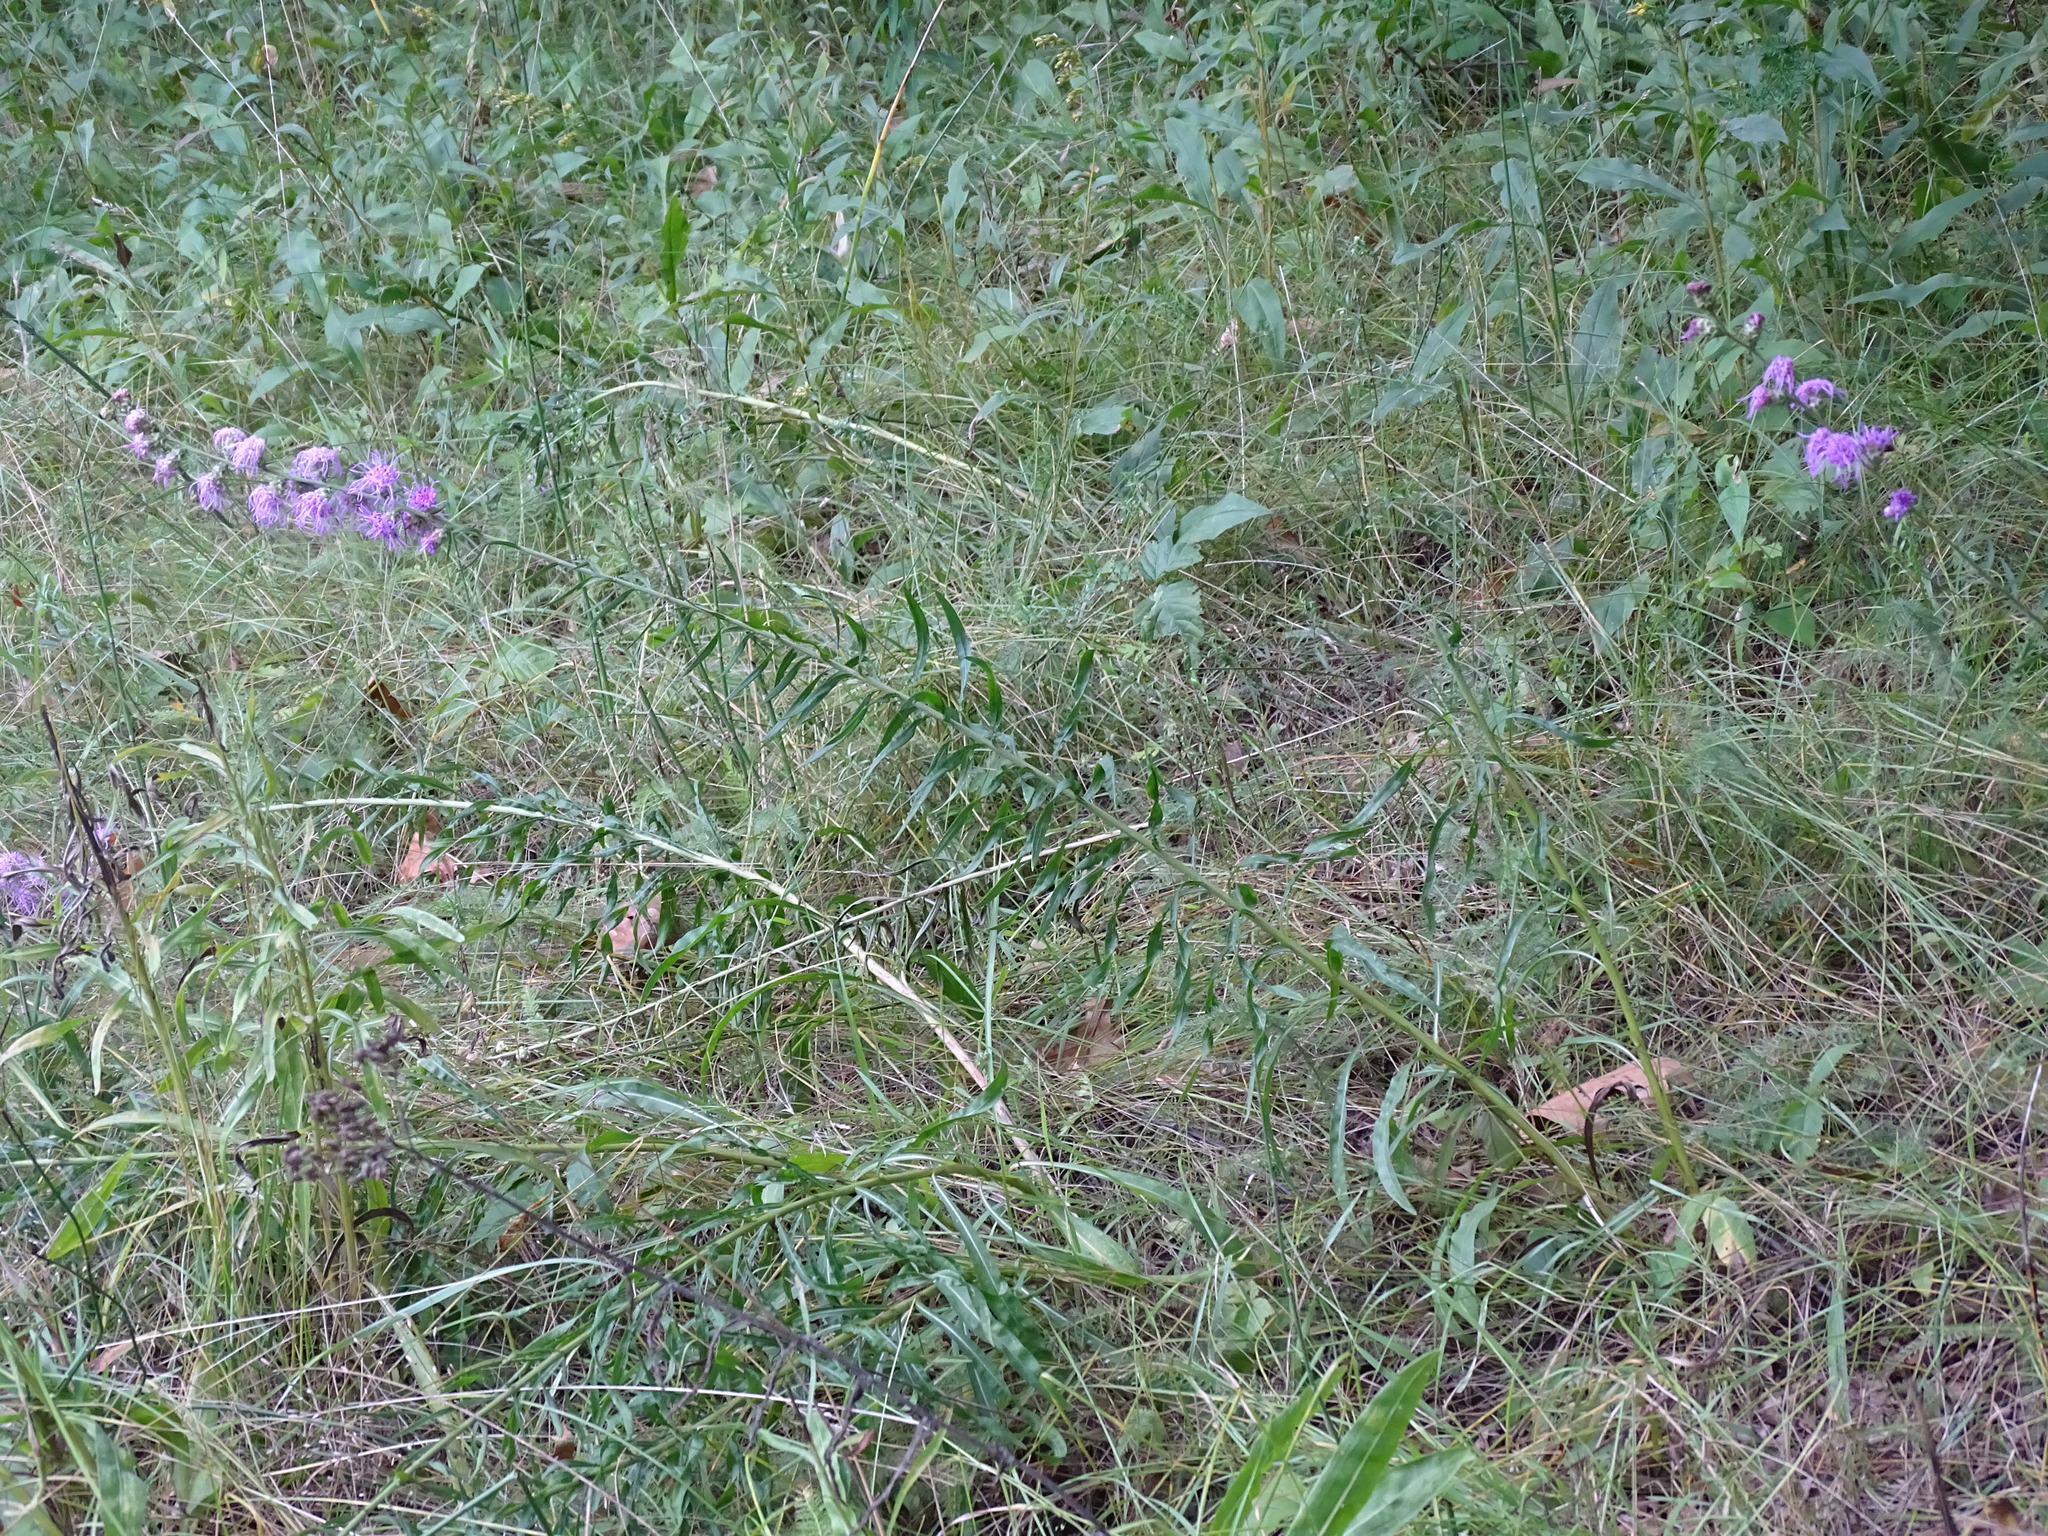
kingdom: Plantae
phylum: Tracheophyta
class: Magnoliopsida
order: Asterales
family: Asteraceae
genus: Liatris
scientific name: Liatris aspera
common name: Lacerate blazing-star
